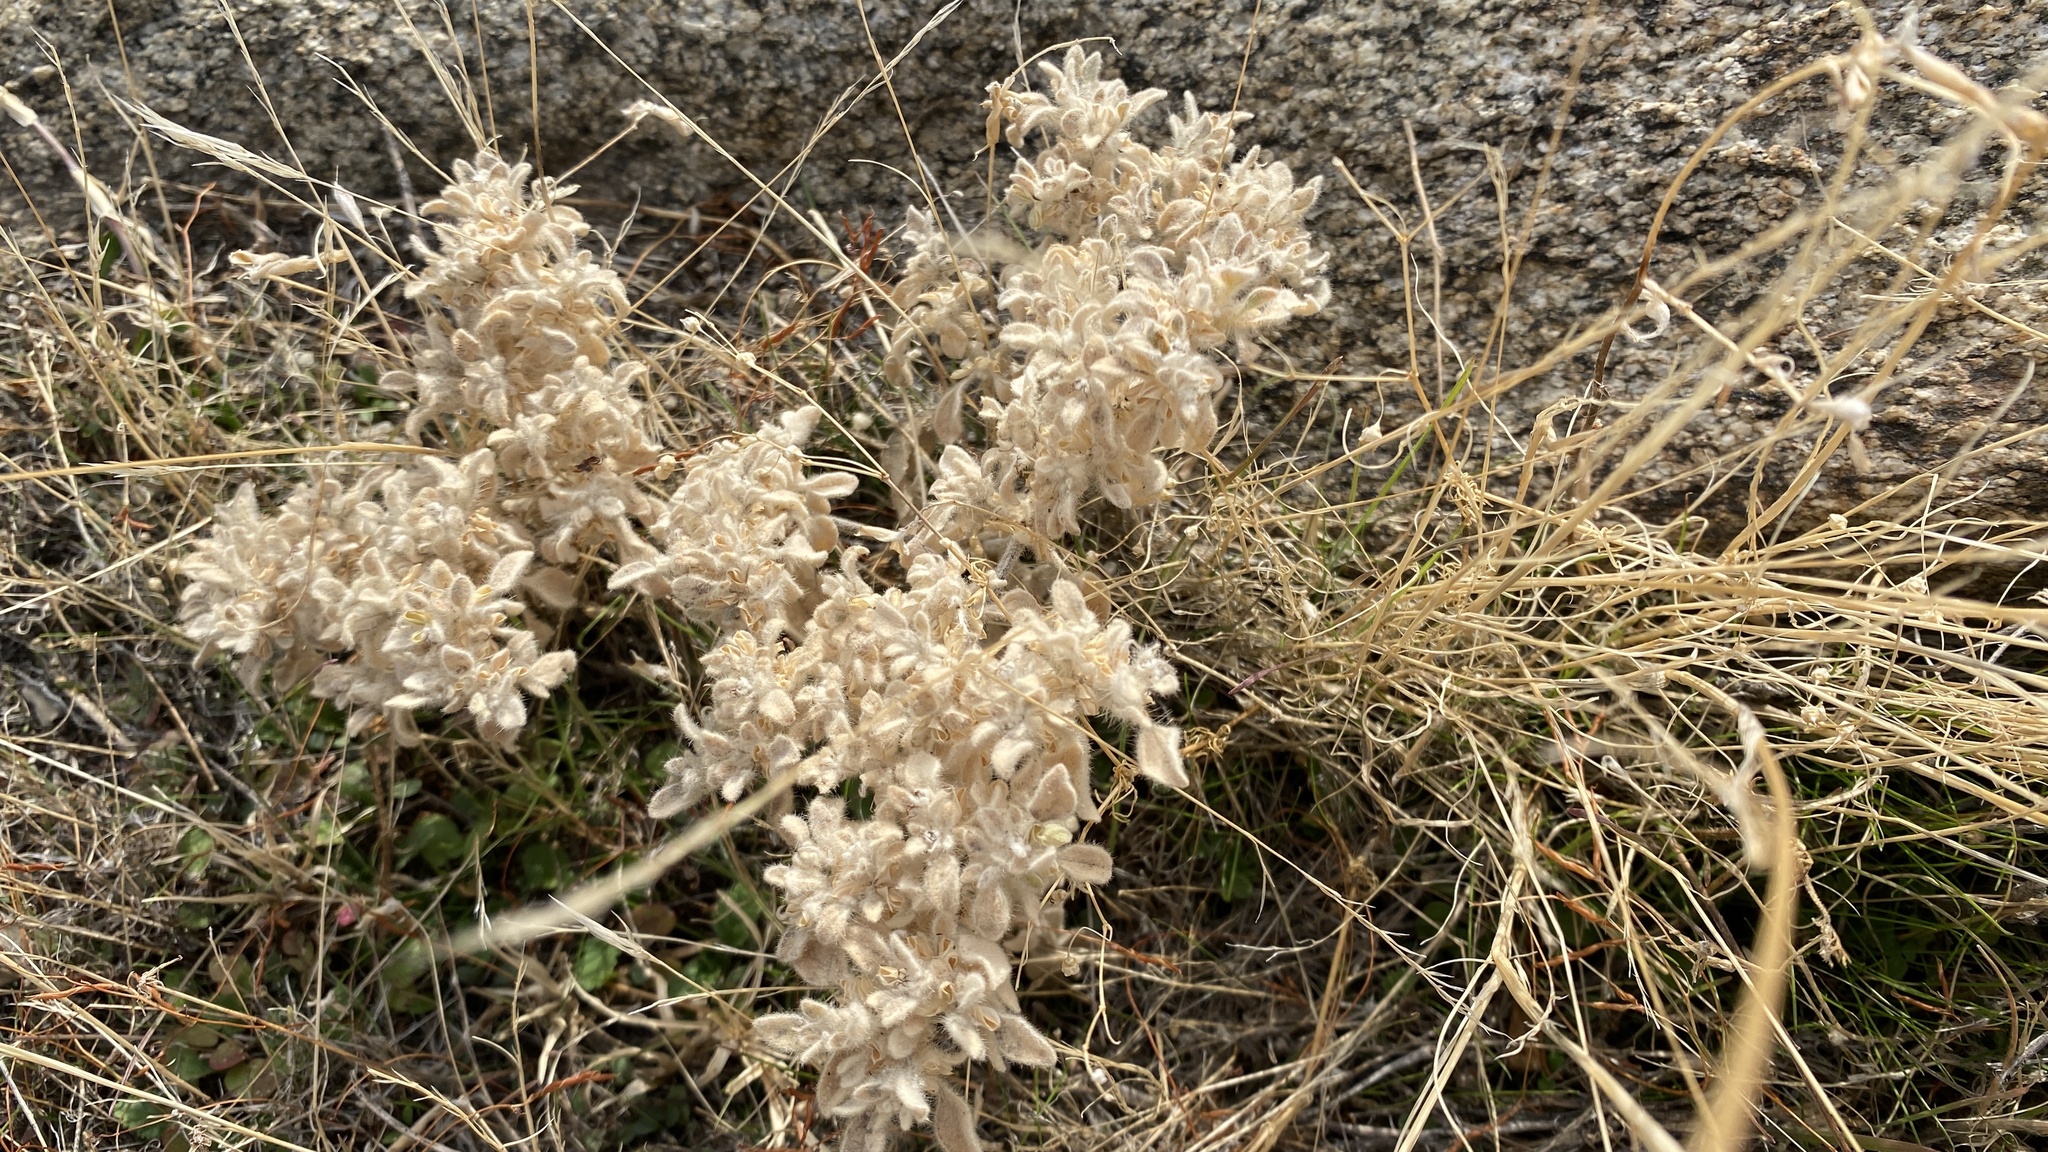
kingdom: Plantae
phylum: Tracheophyta
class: Magnoliopsida
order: Malpighiales
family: Euphorbiaceae
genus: Croton
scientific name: Croton setiger
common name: Dove weed
